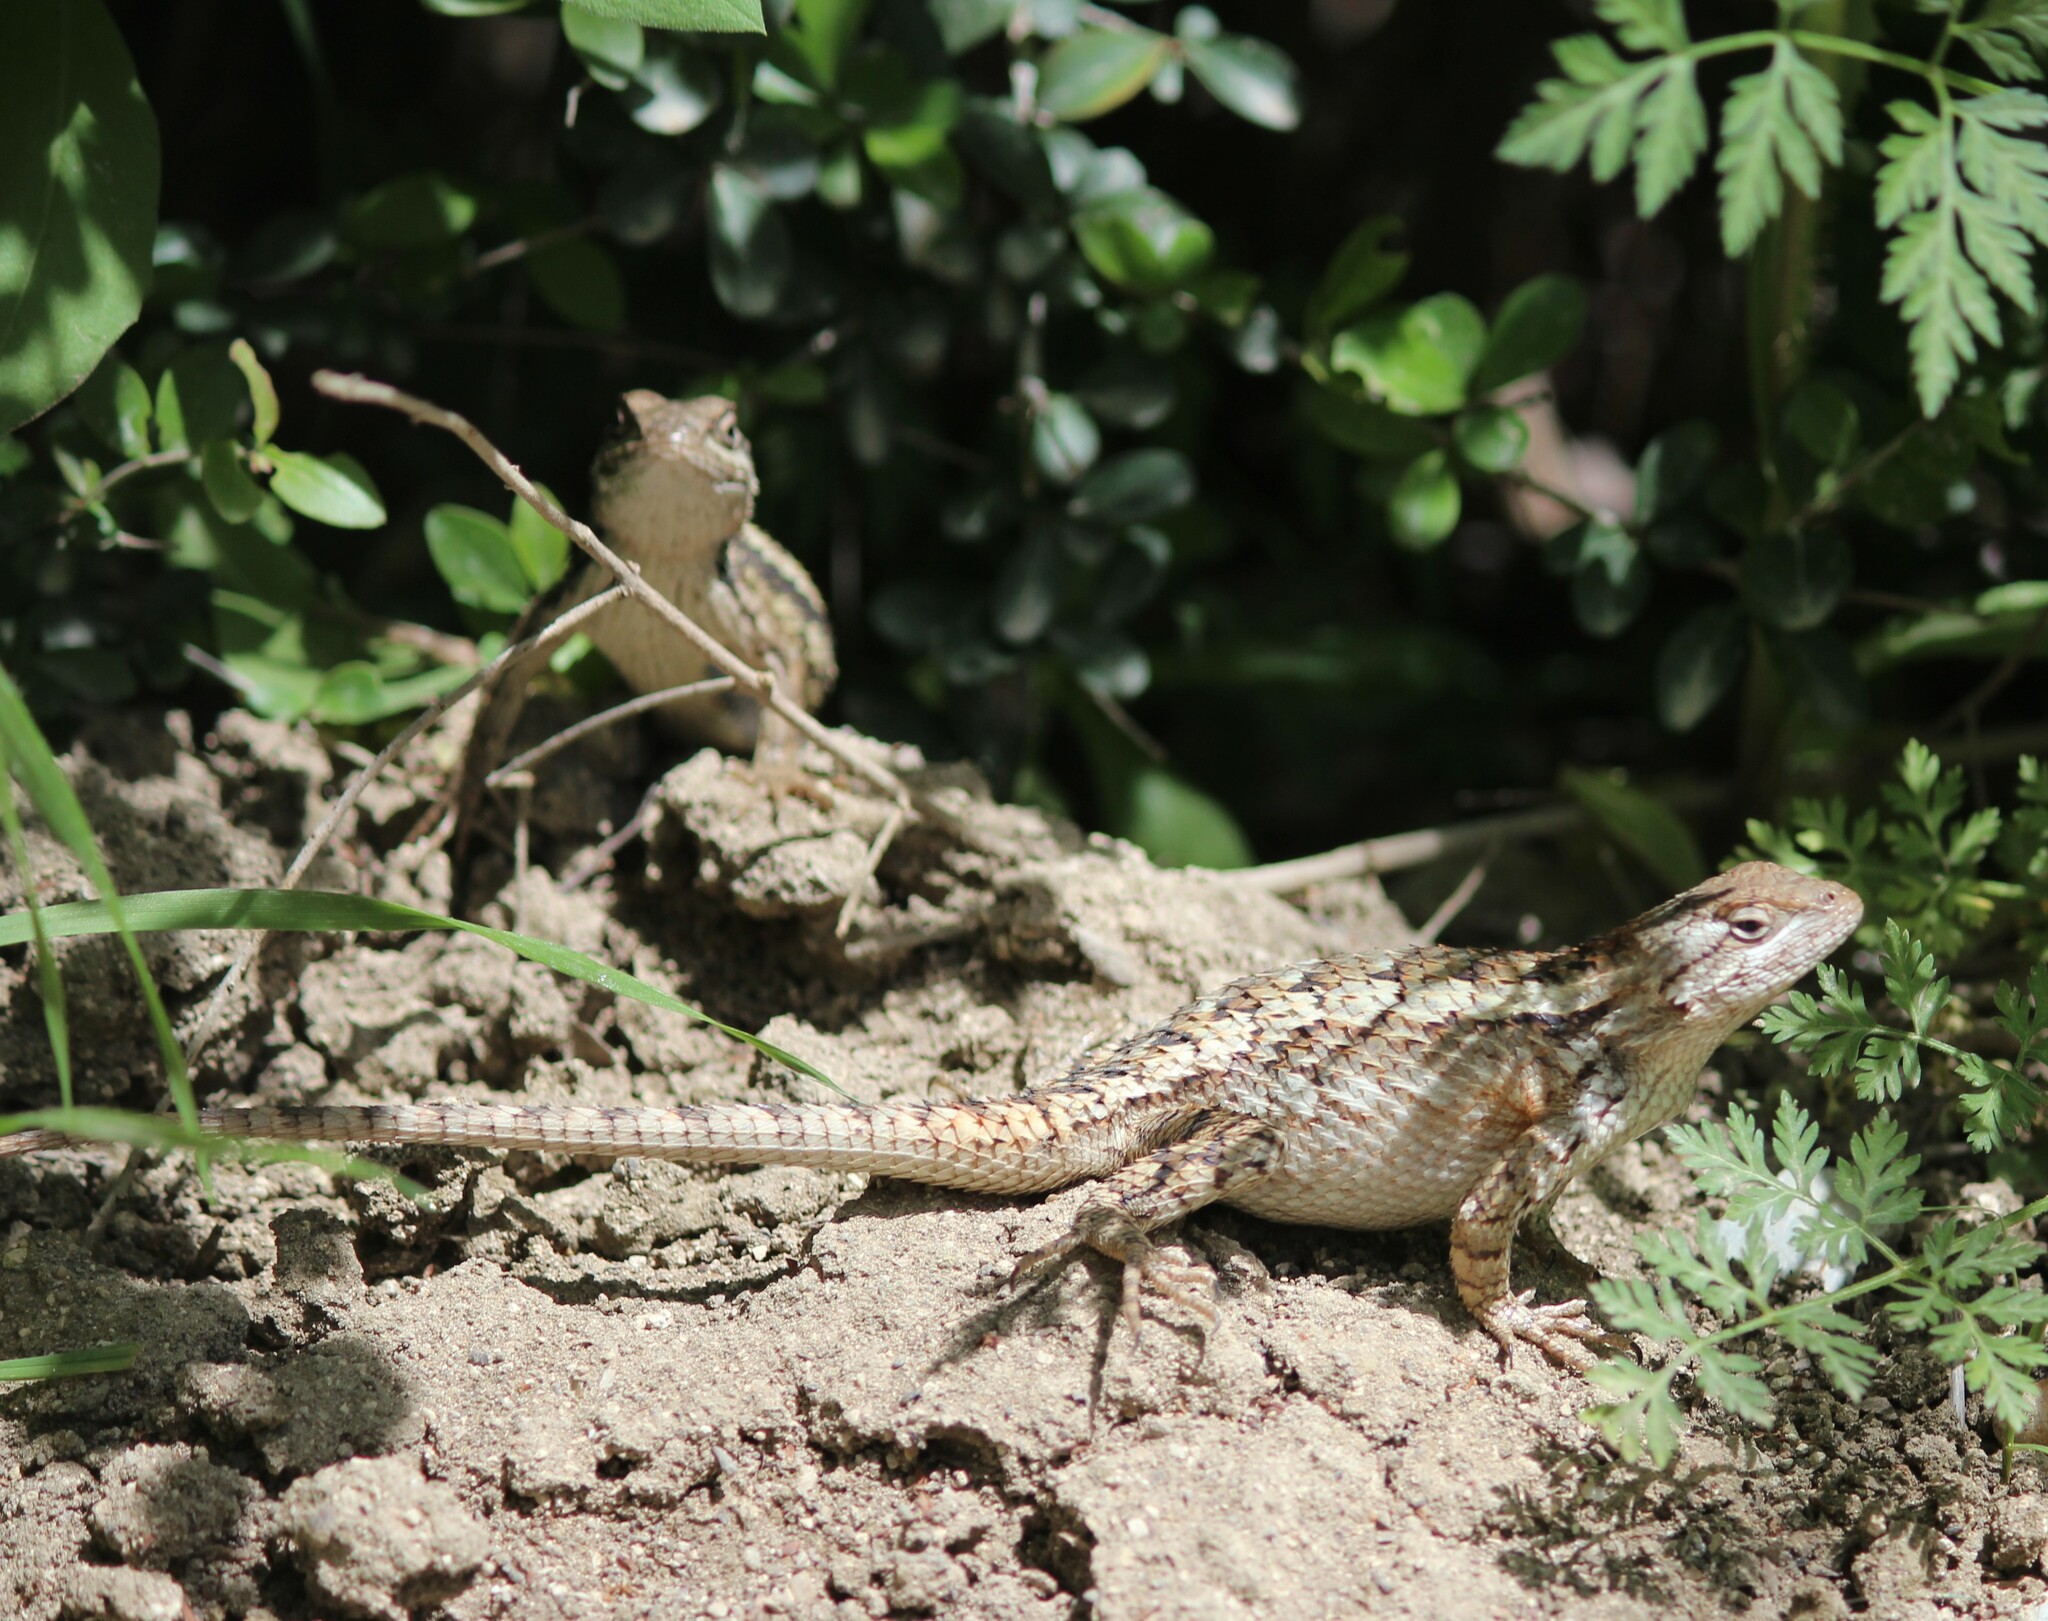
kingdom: Animalia
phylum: Chordata
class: Squamata
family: Phrynosomatidae
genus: Sceloporus
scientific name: Sceloporus olivaceus
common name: Texas spiny lizard
